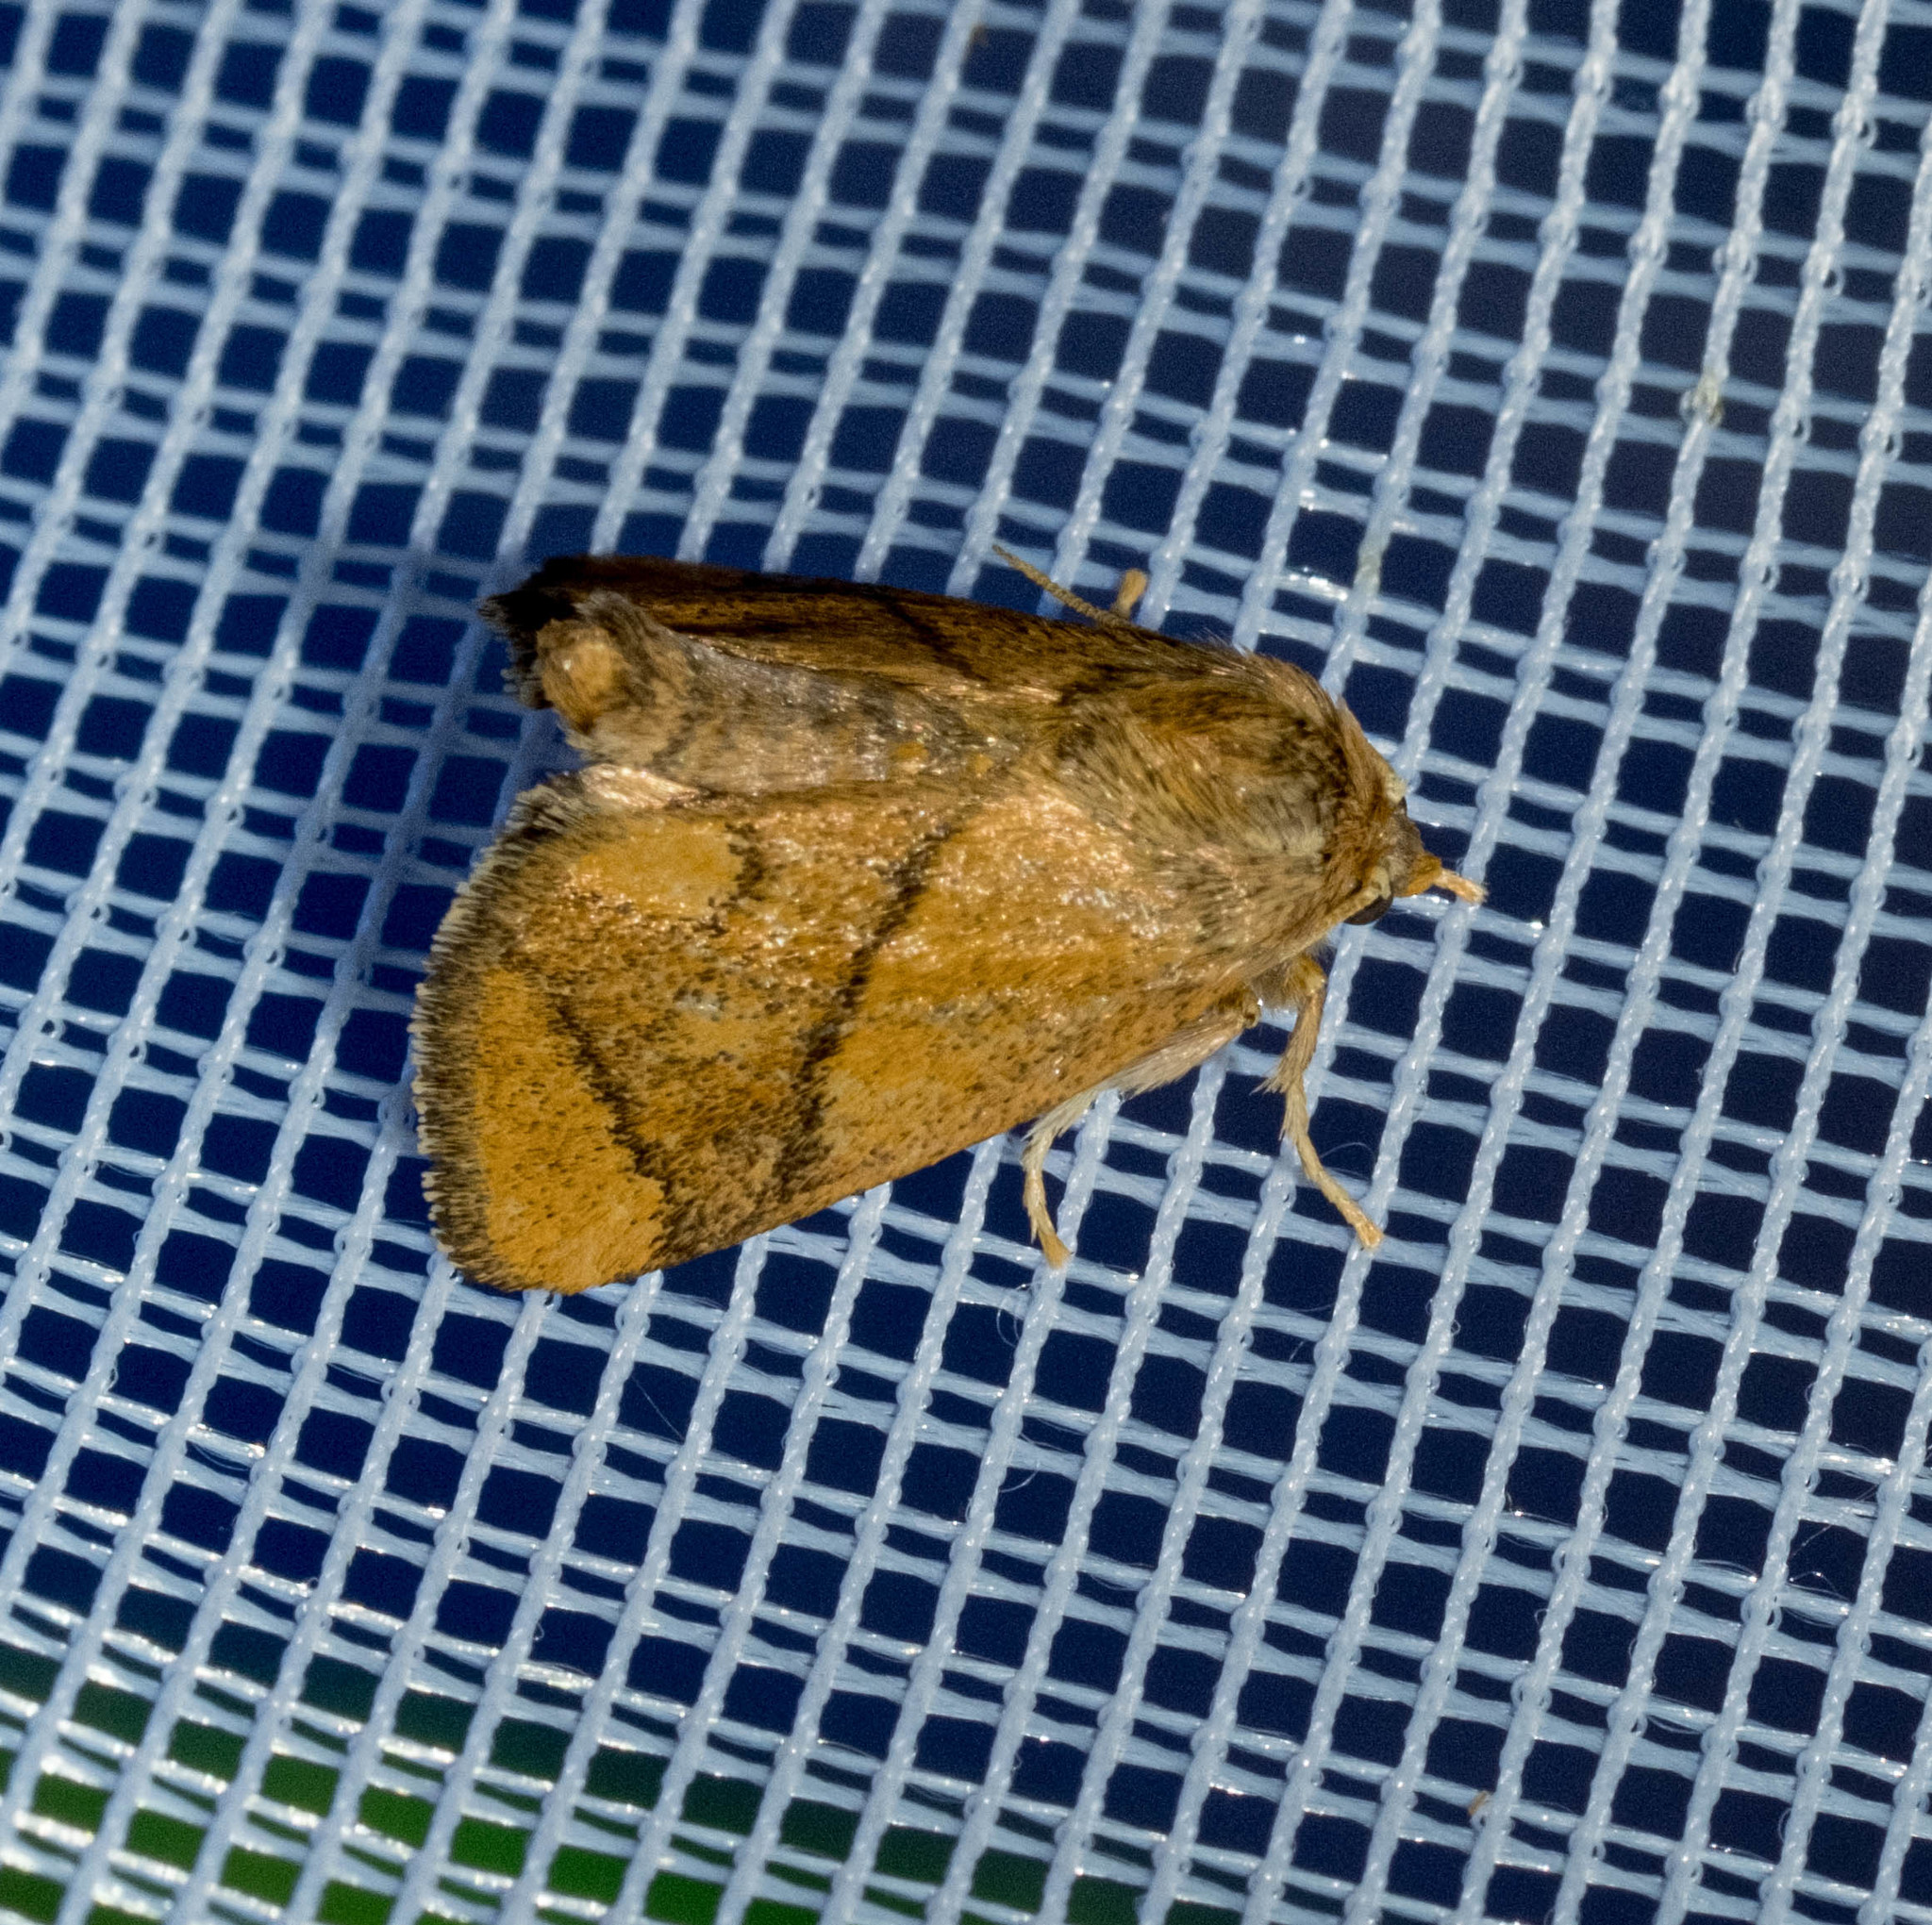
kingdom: Animalia
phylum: Arthropoda
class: Insecta
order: Lepidoptera
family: Limacodidae
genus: Apoda
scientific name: Apoda limacodes
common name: Festoon
